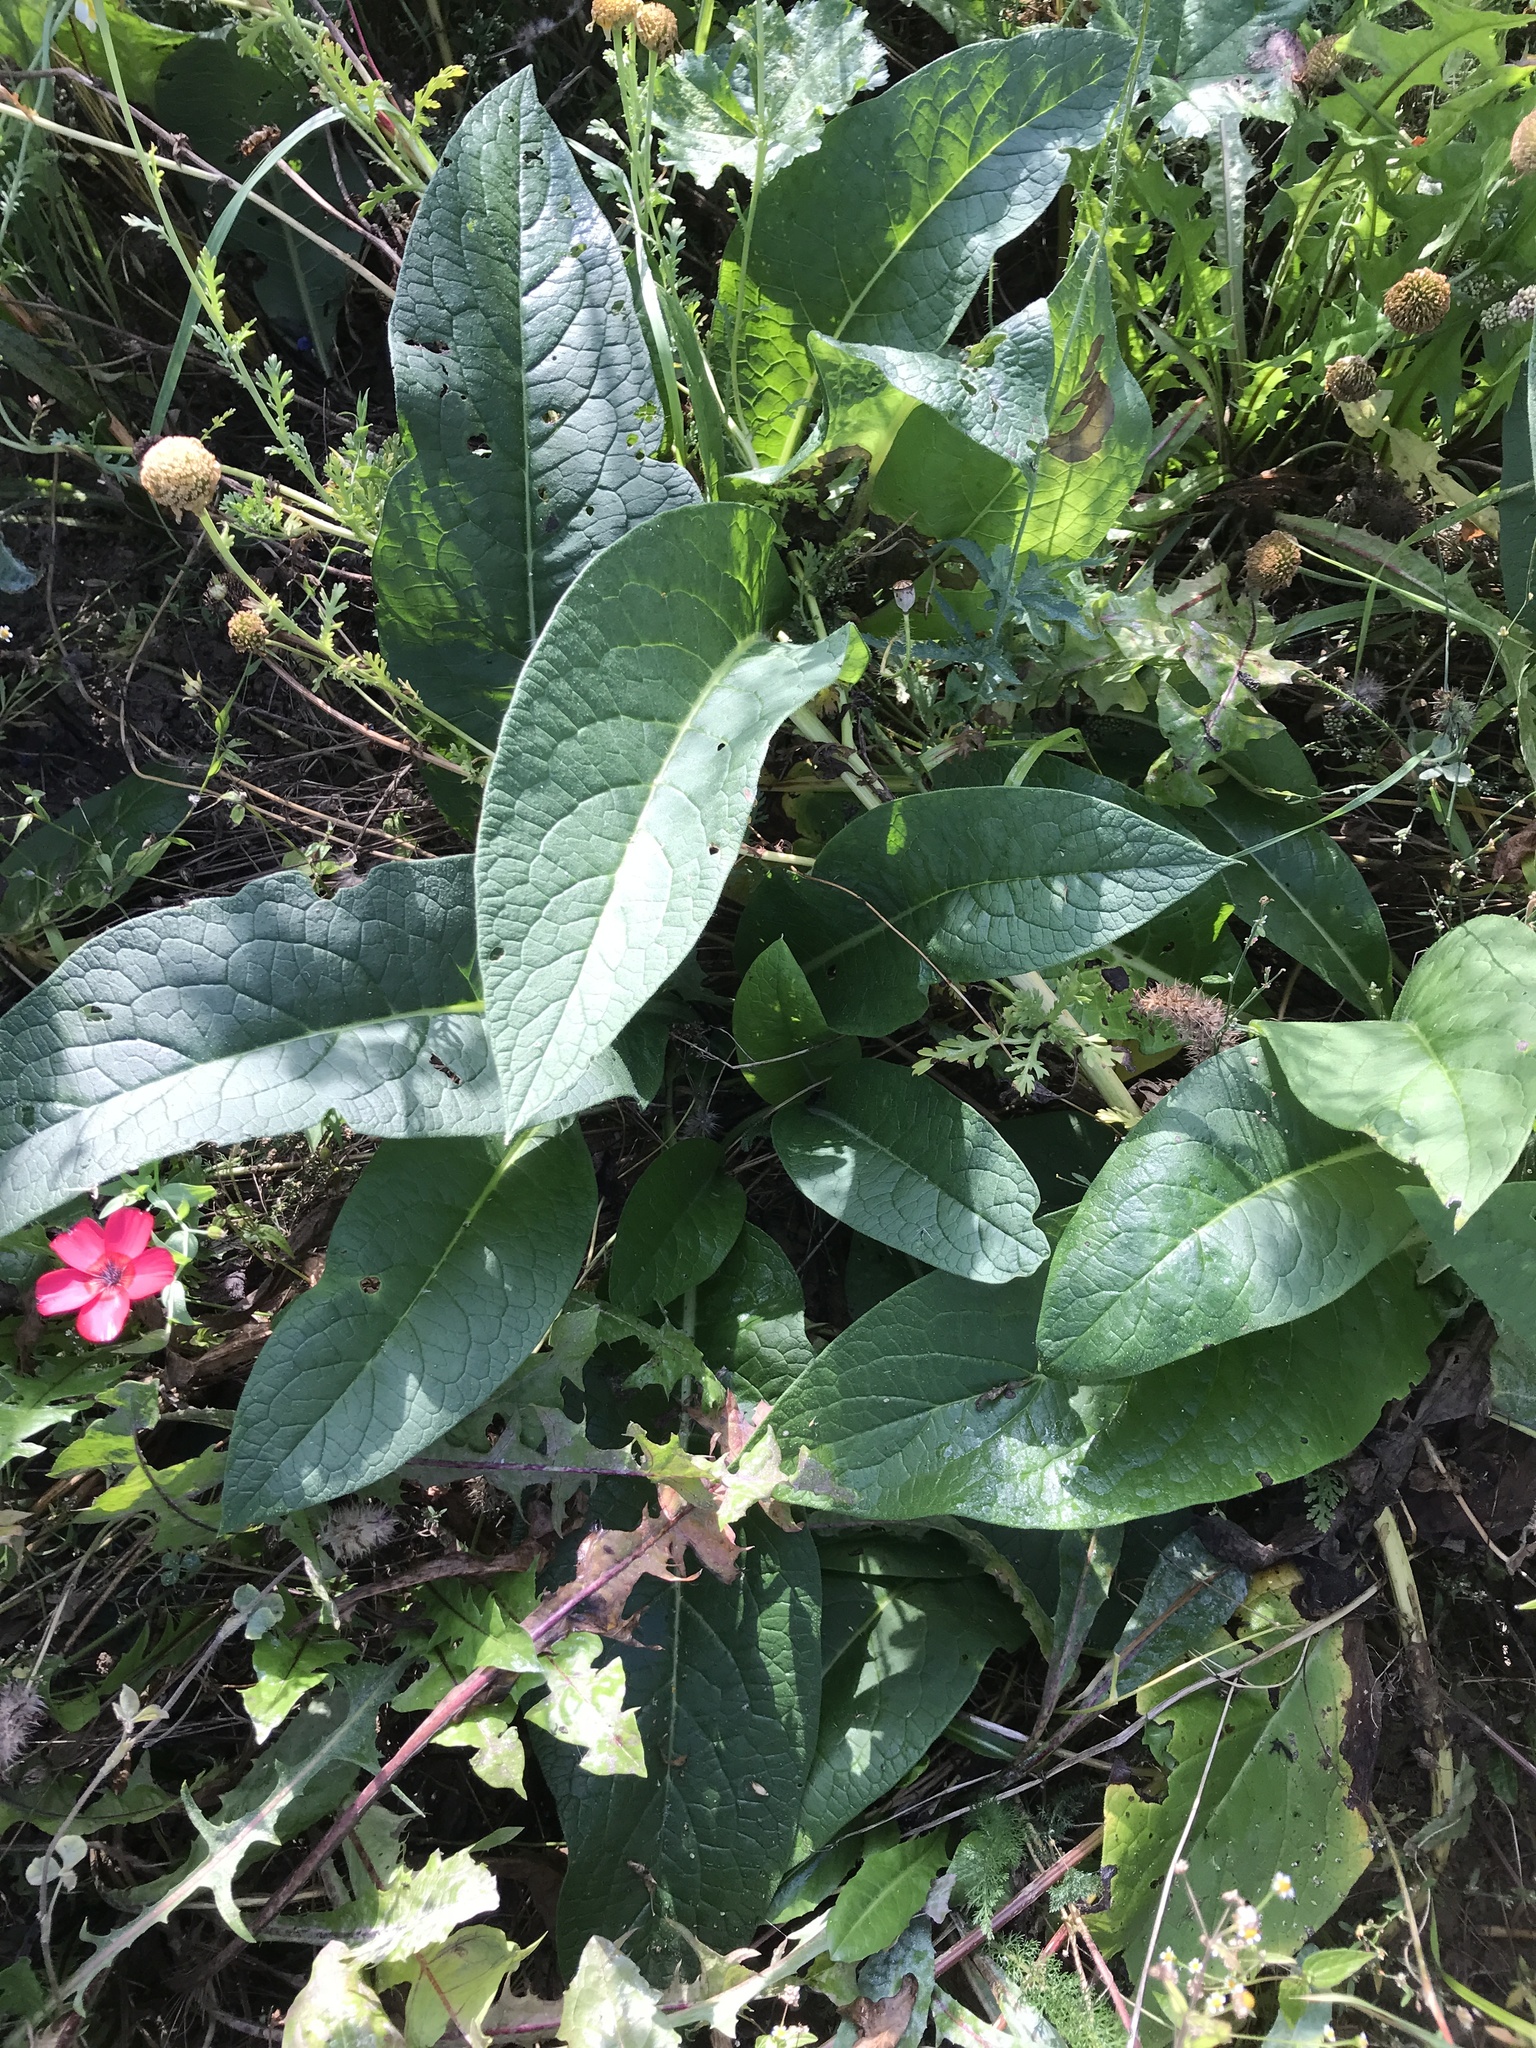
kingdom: Plantae
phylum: Tracheophyta
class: Magnoliopsida
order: Boraginales
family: Boraginaceae
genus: Symphytum
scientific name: Symphytum officinale
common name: Common comfrey
